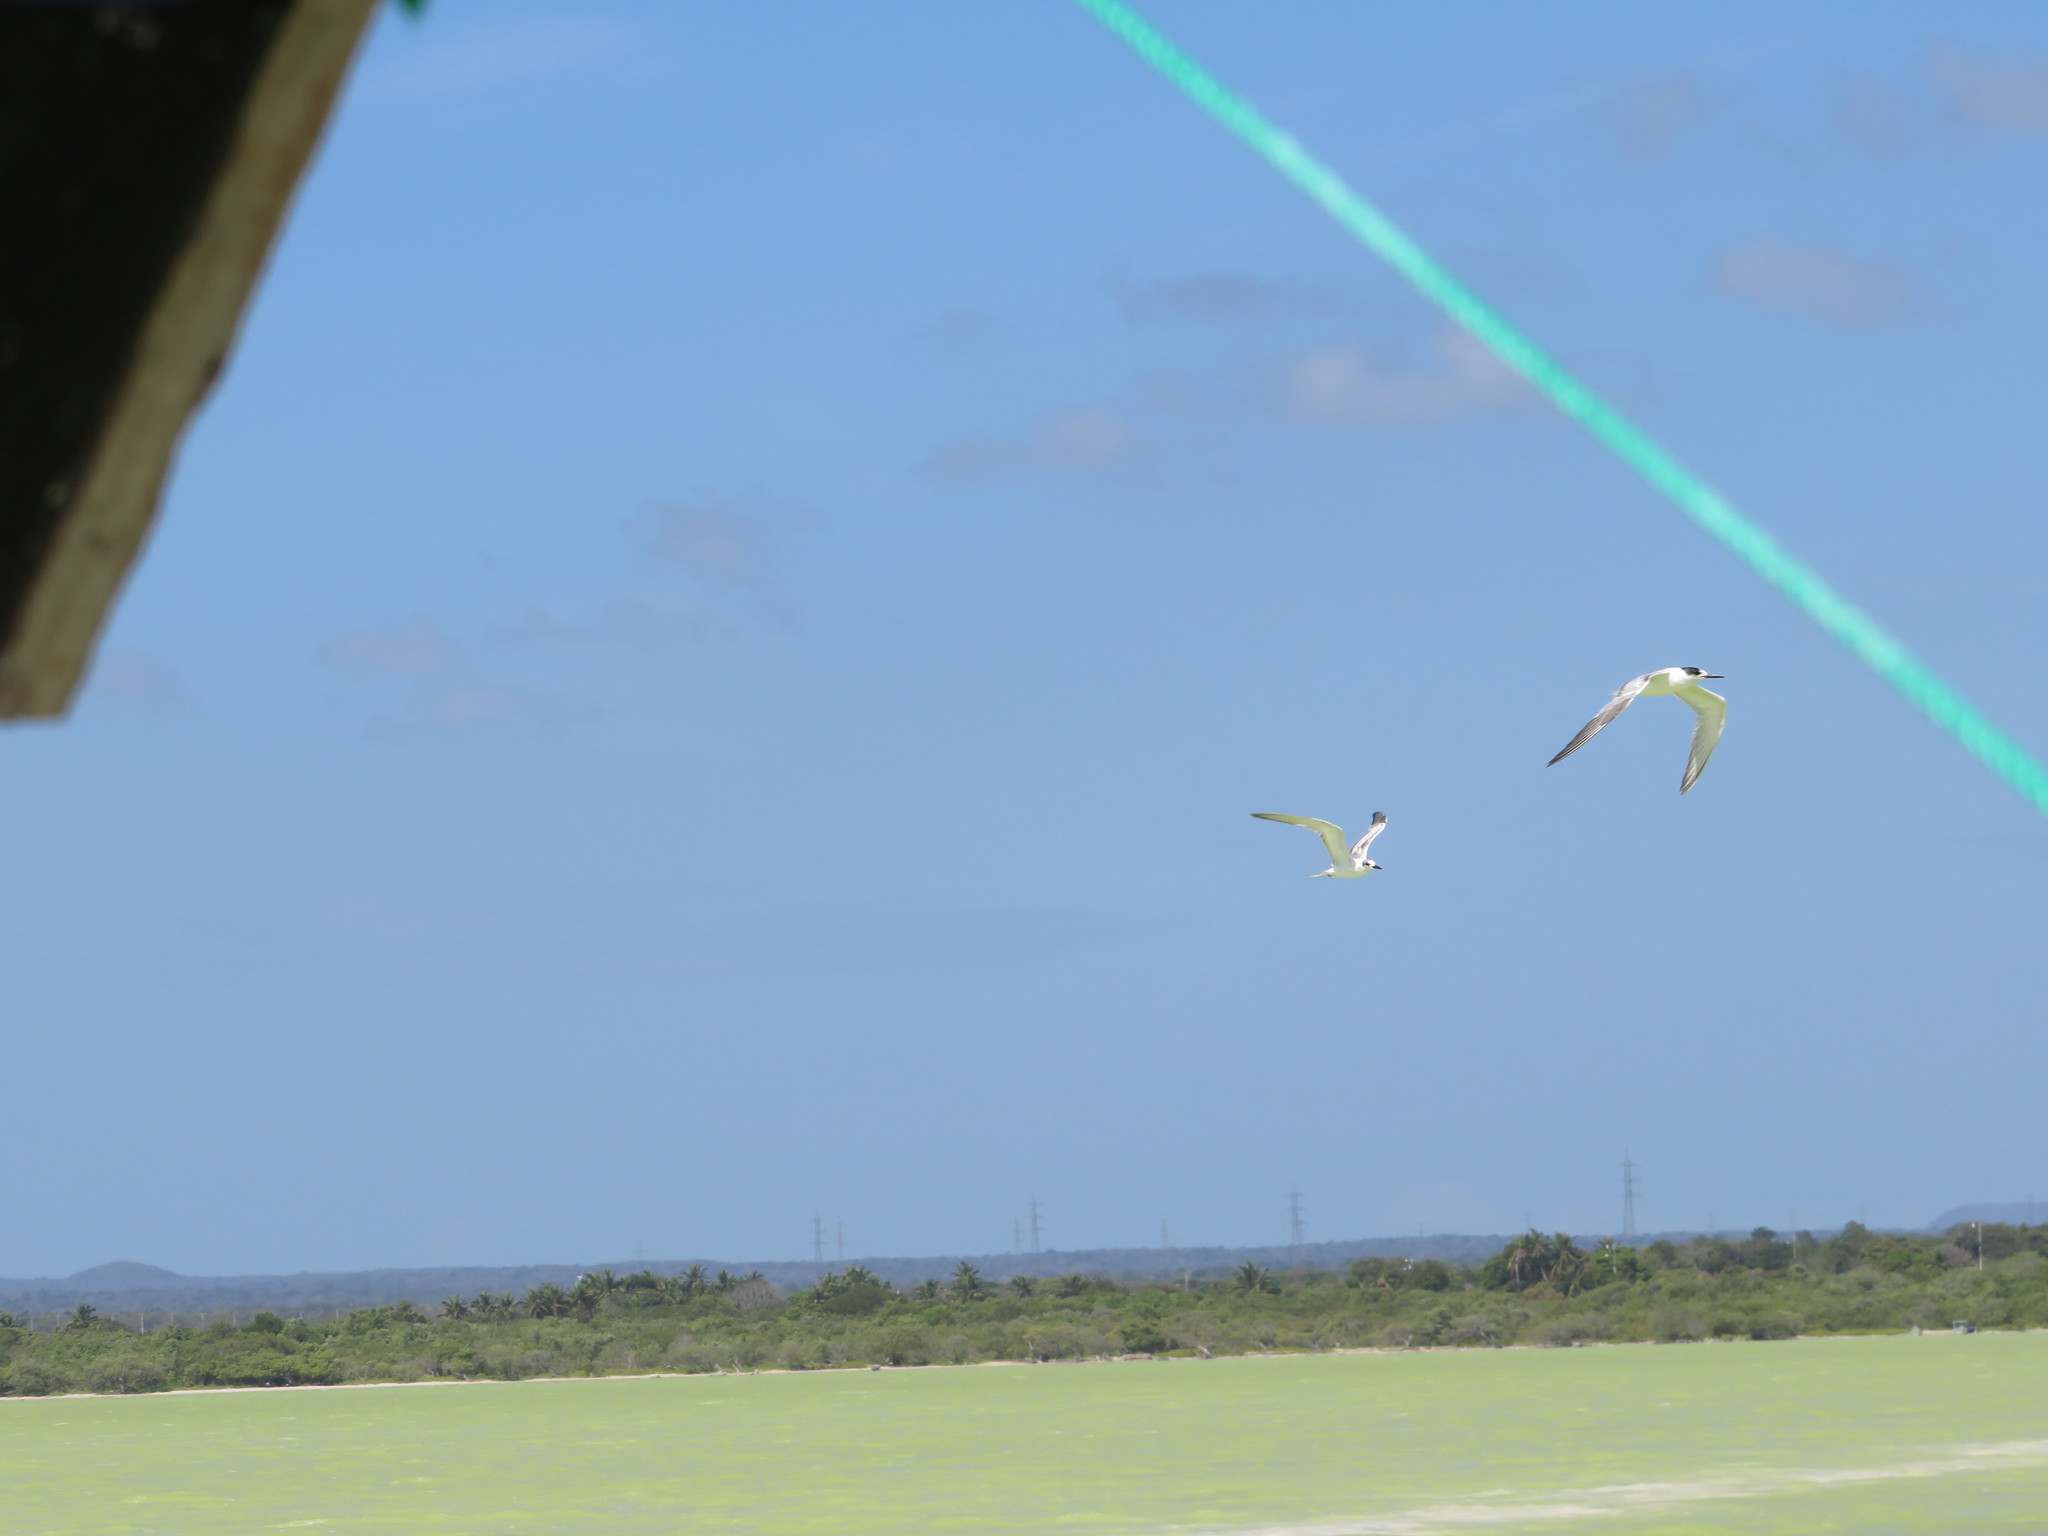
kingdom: Animalia
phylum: Chordata
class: Aves
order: Charadriiformes
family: Laridae
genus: Sterna
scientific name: Sterna hirundo
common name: Common tern
